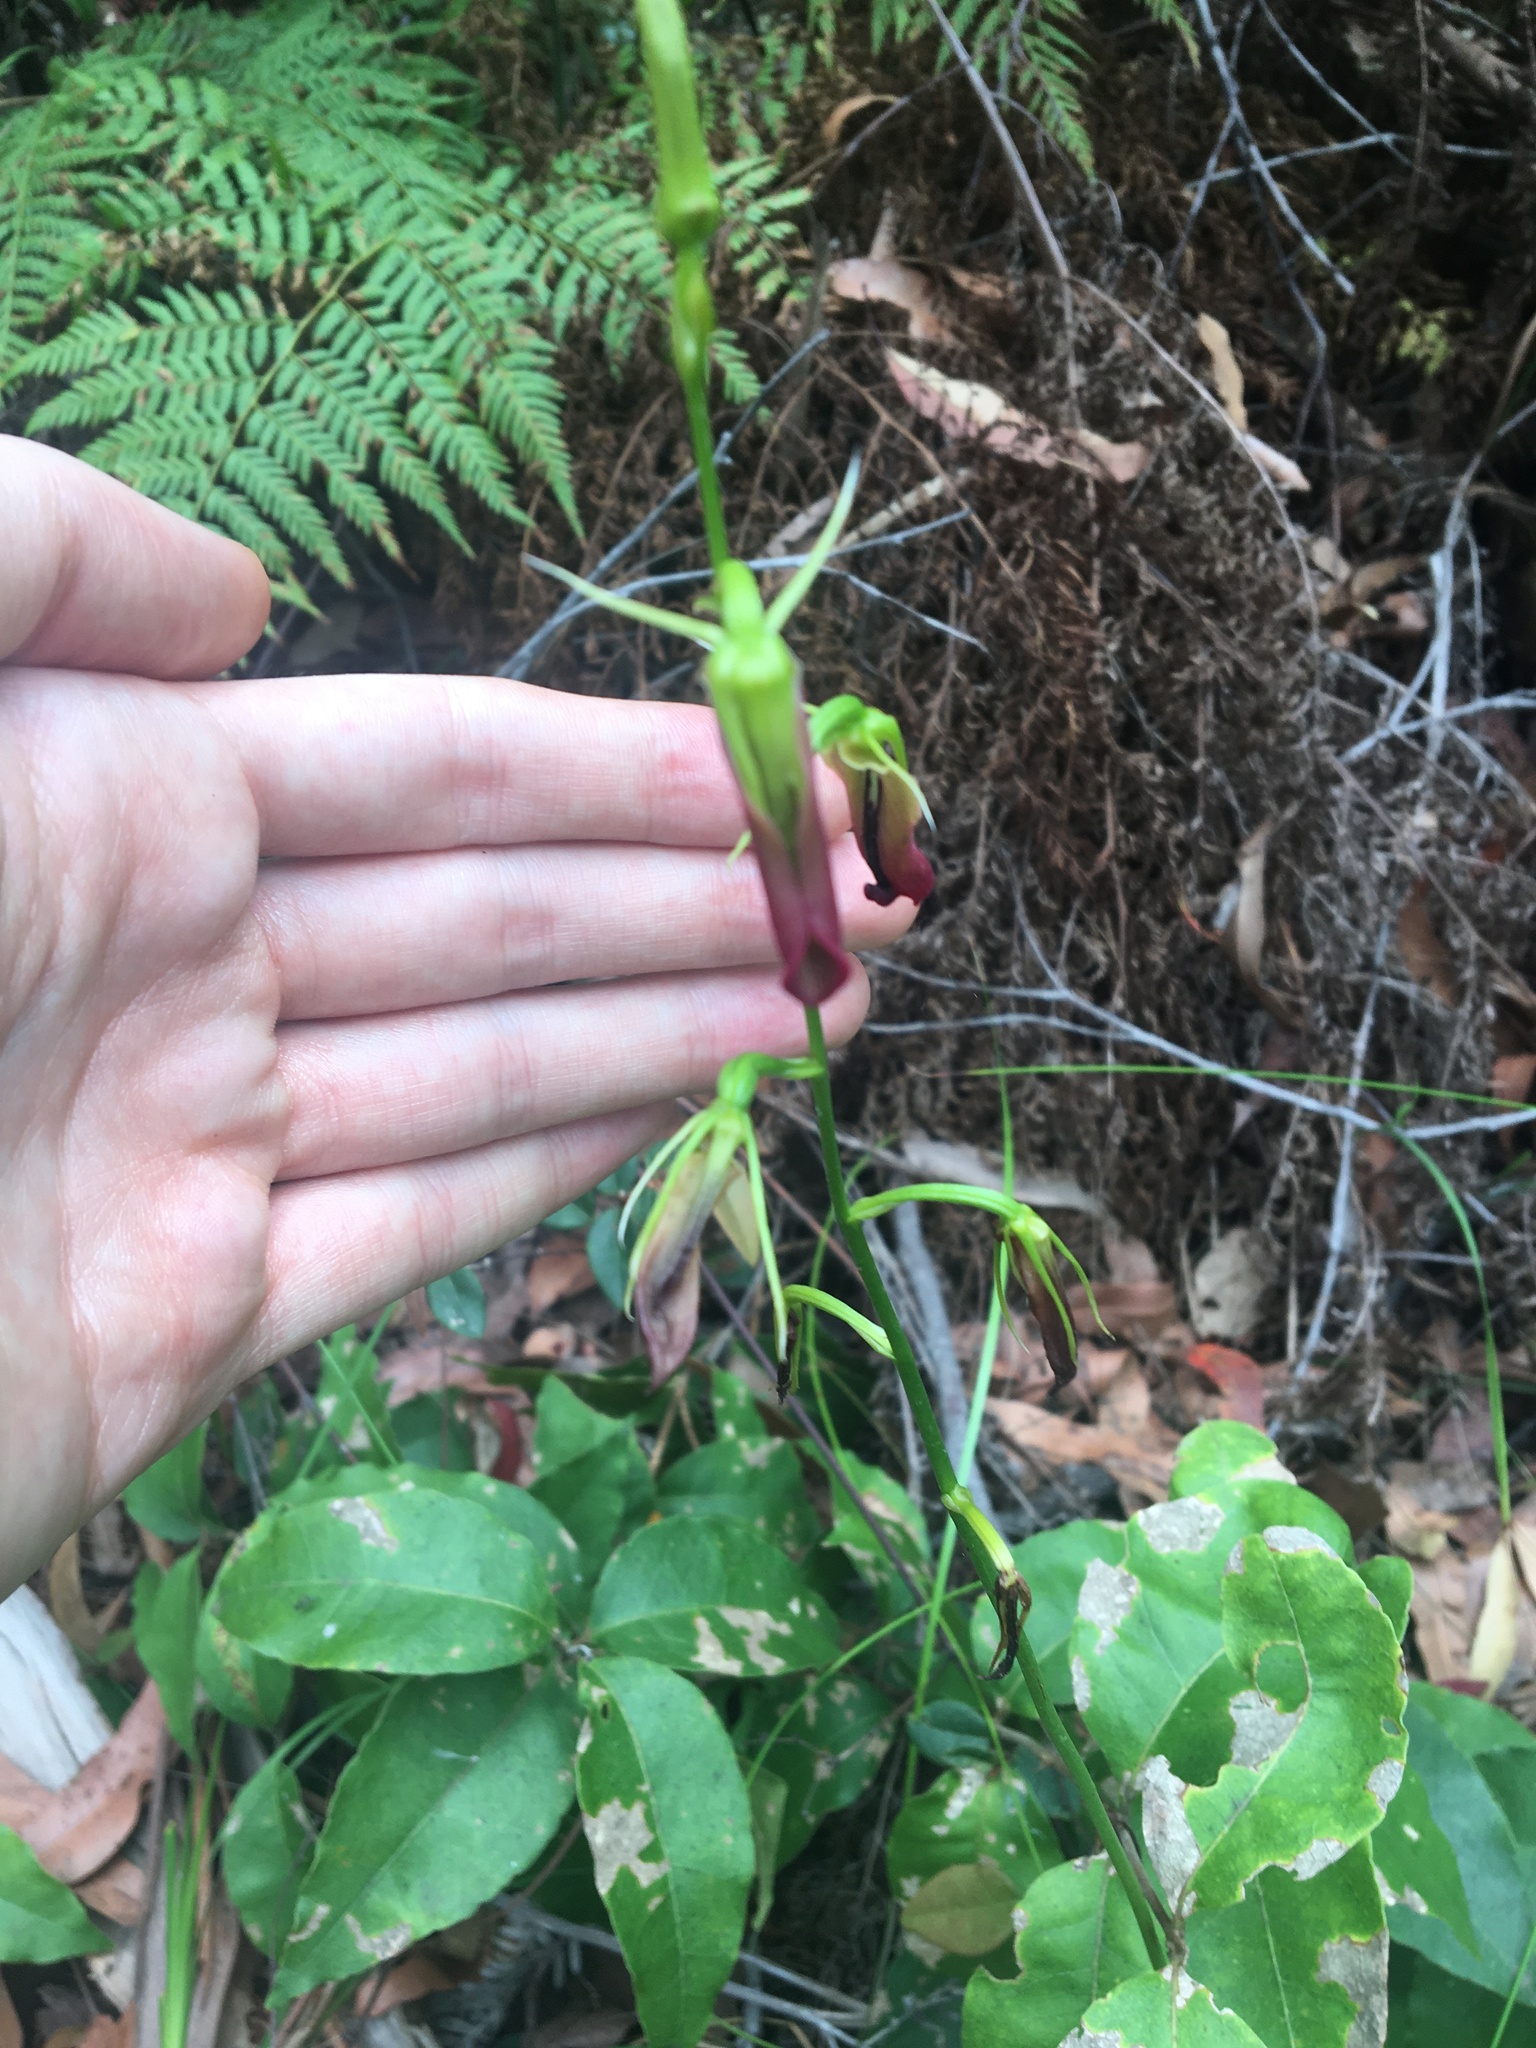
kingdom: Plantae
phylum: Tracheophyta
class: Liliopsida
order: Asparagales
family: Orchidaceae
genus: Cryptostylis
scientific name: Cryptostylis subulata
